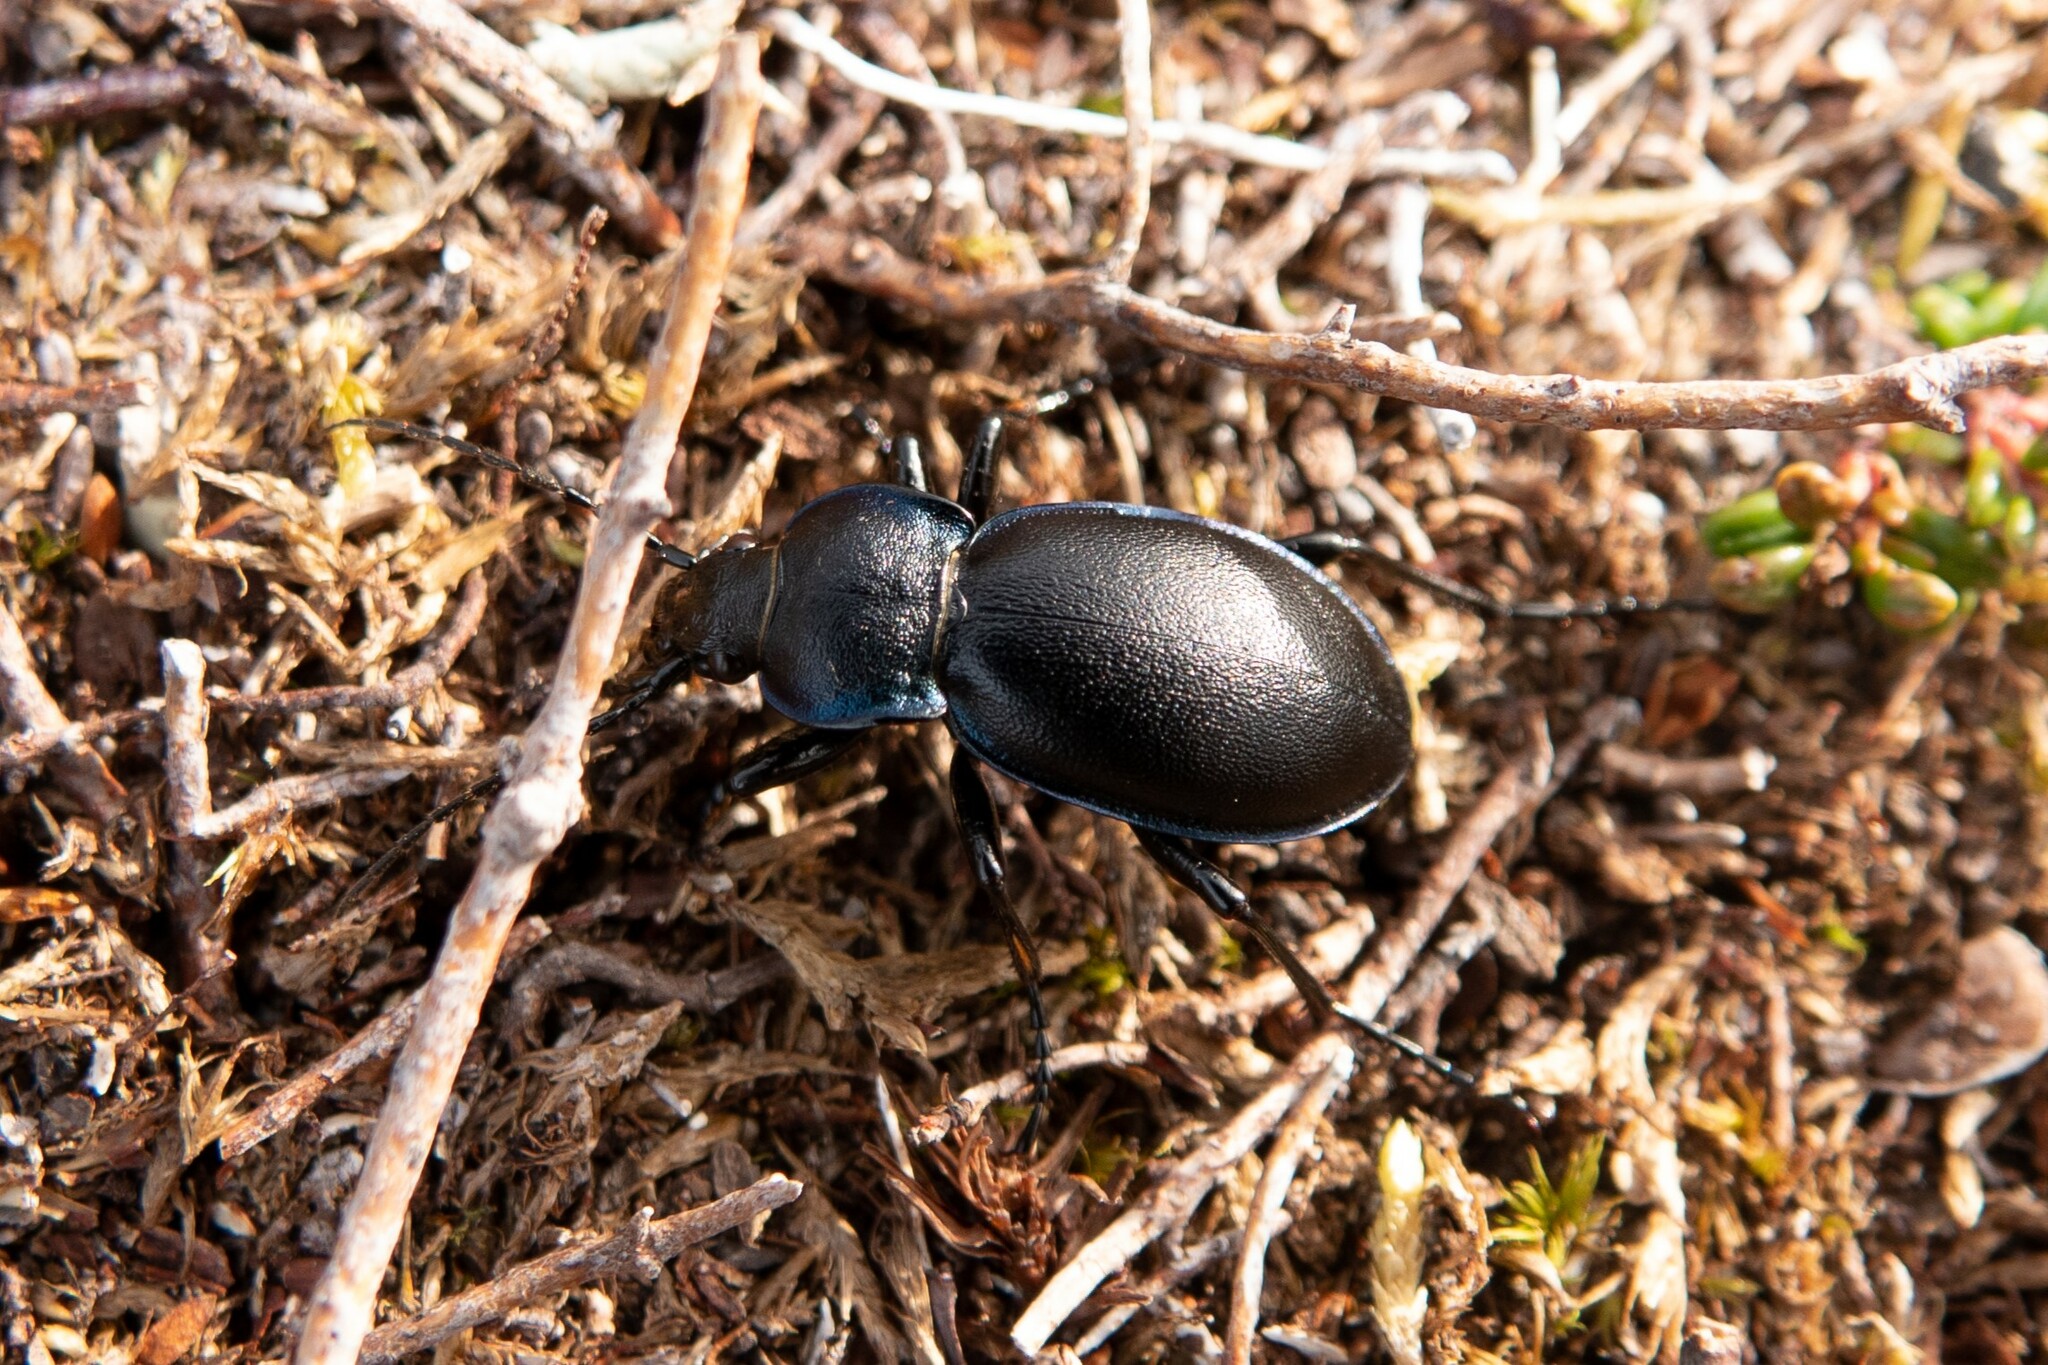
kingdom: Animalia
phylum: Arthropoda
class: Insecta
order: Coleoptera
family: Carabidae
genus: Carabus
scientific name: Carabus violaceus
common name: Violet ground beetle
